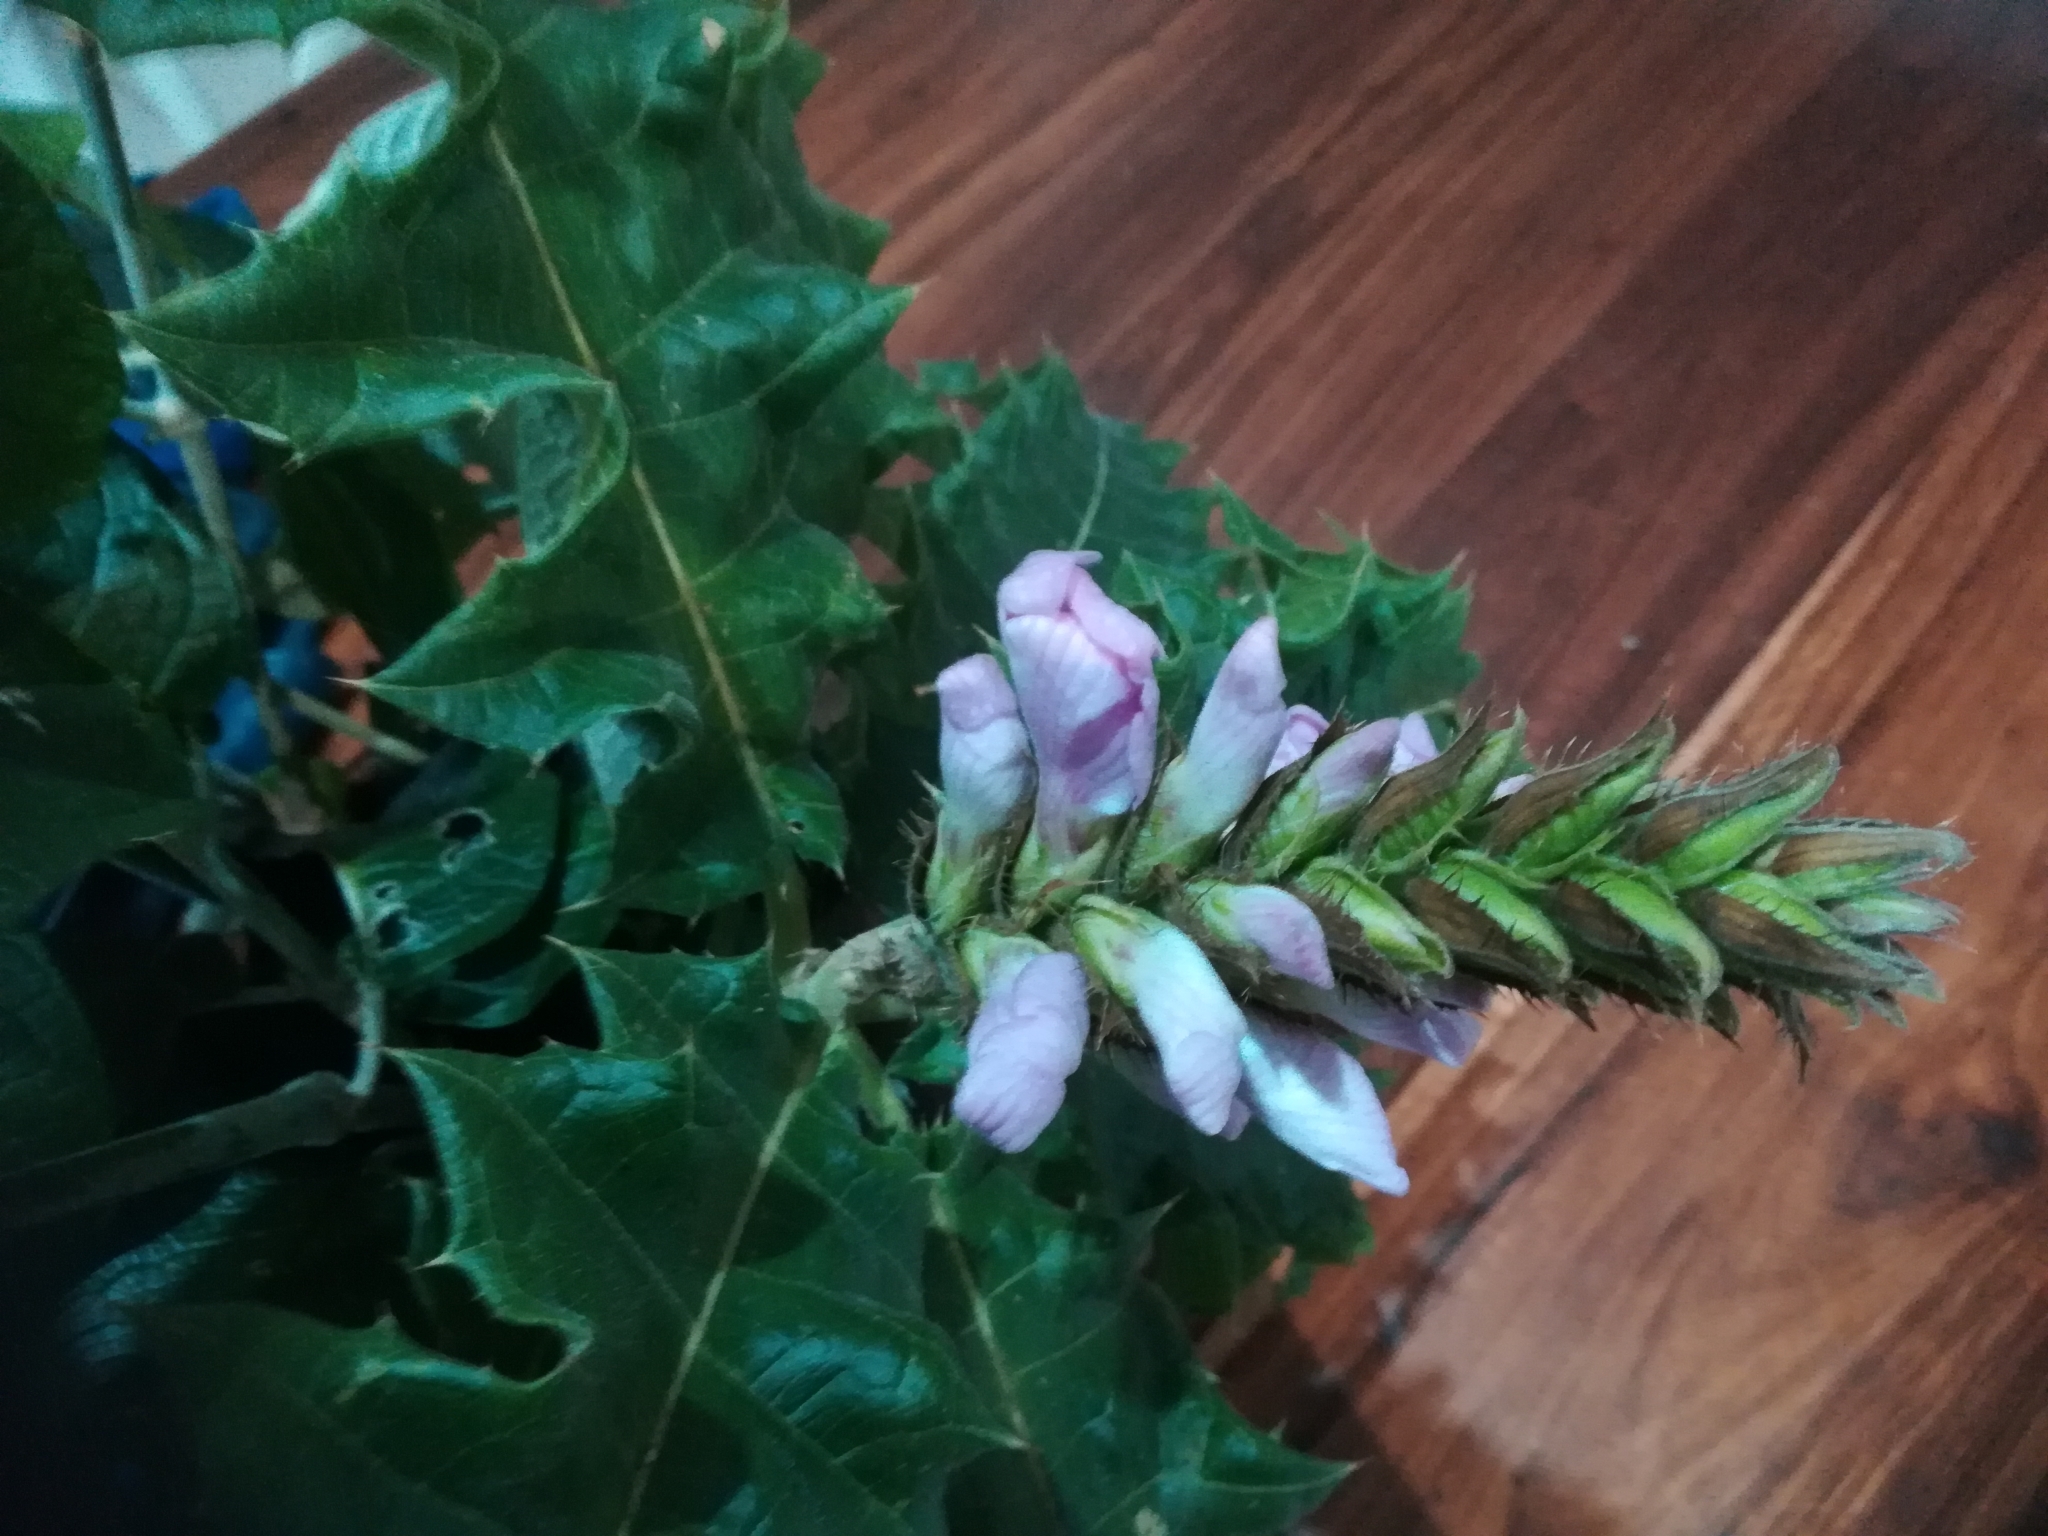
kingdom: Plantae
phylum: Tracheophyta
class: Magnoliopsida
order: Lamiales
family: Acanthaceae
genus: Acanthus
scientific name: Acanthus polystachyus
